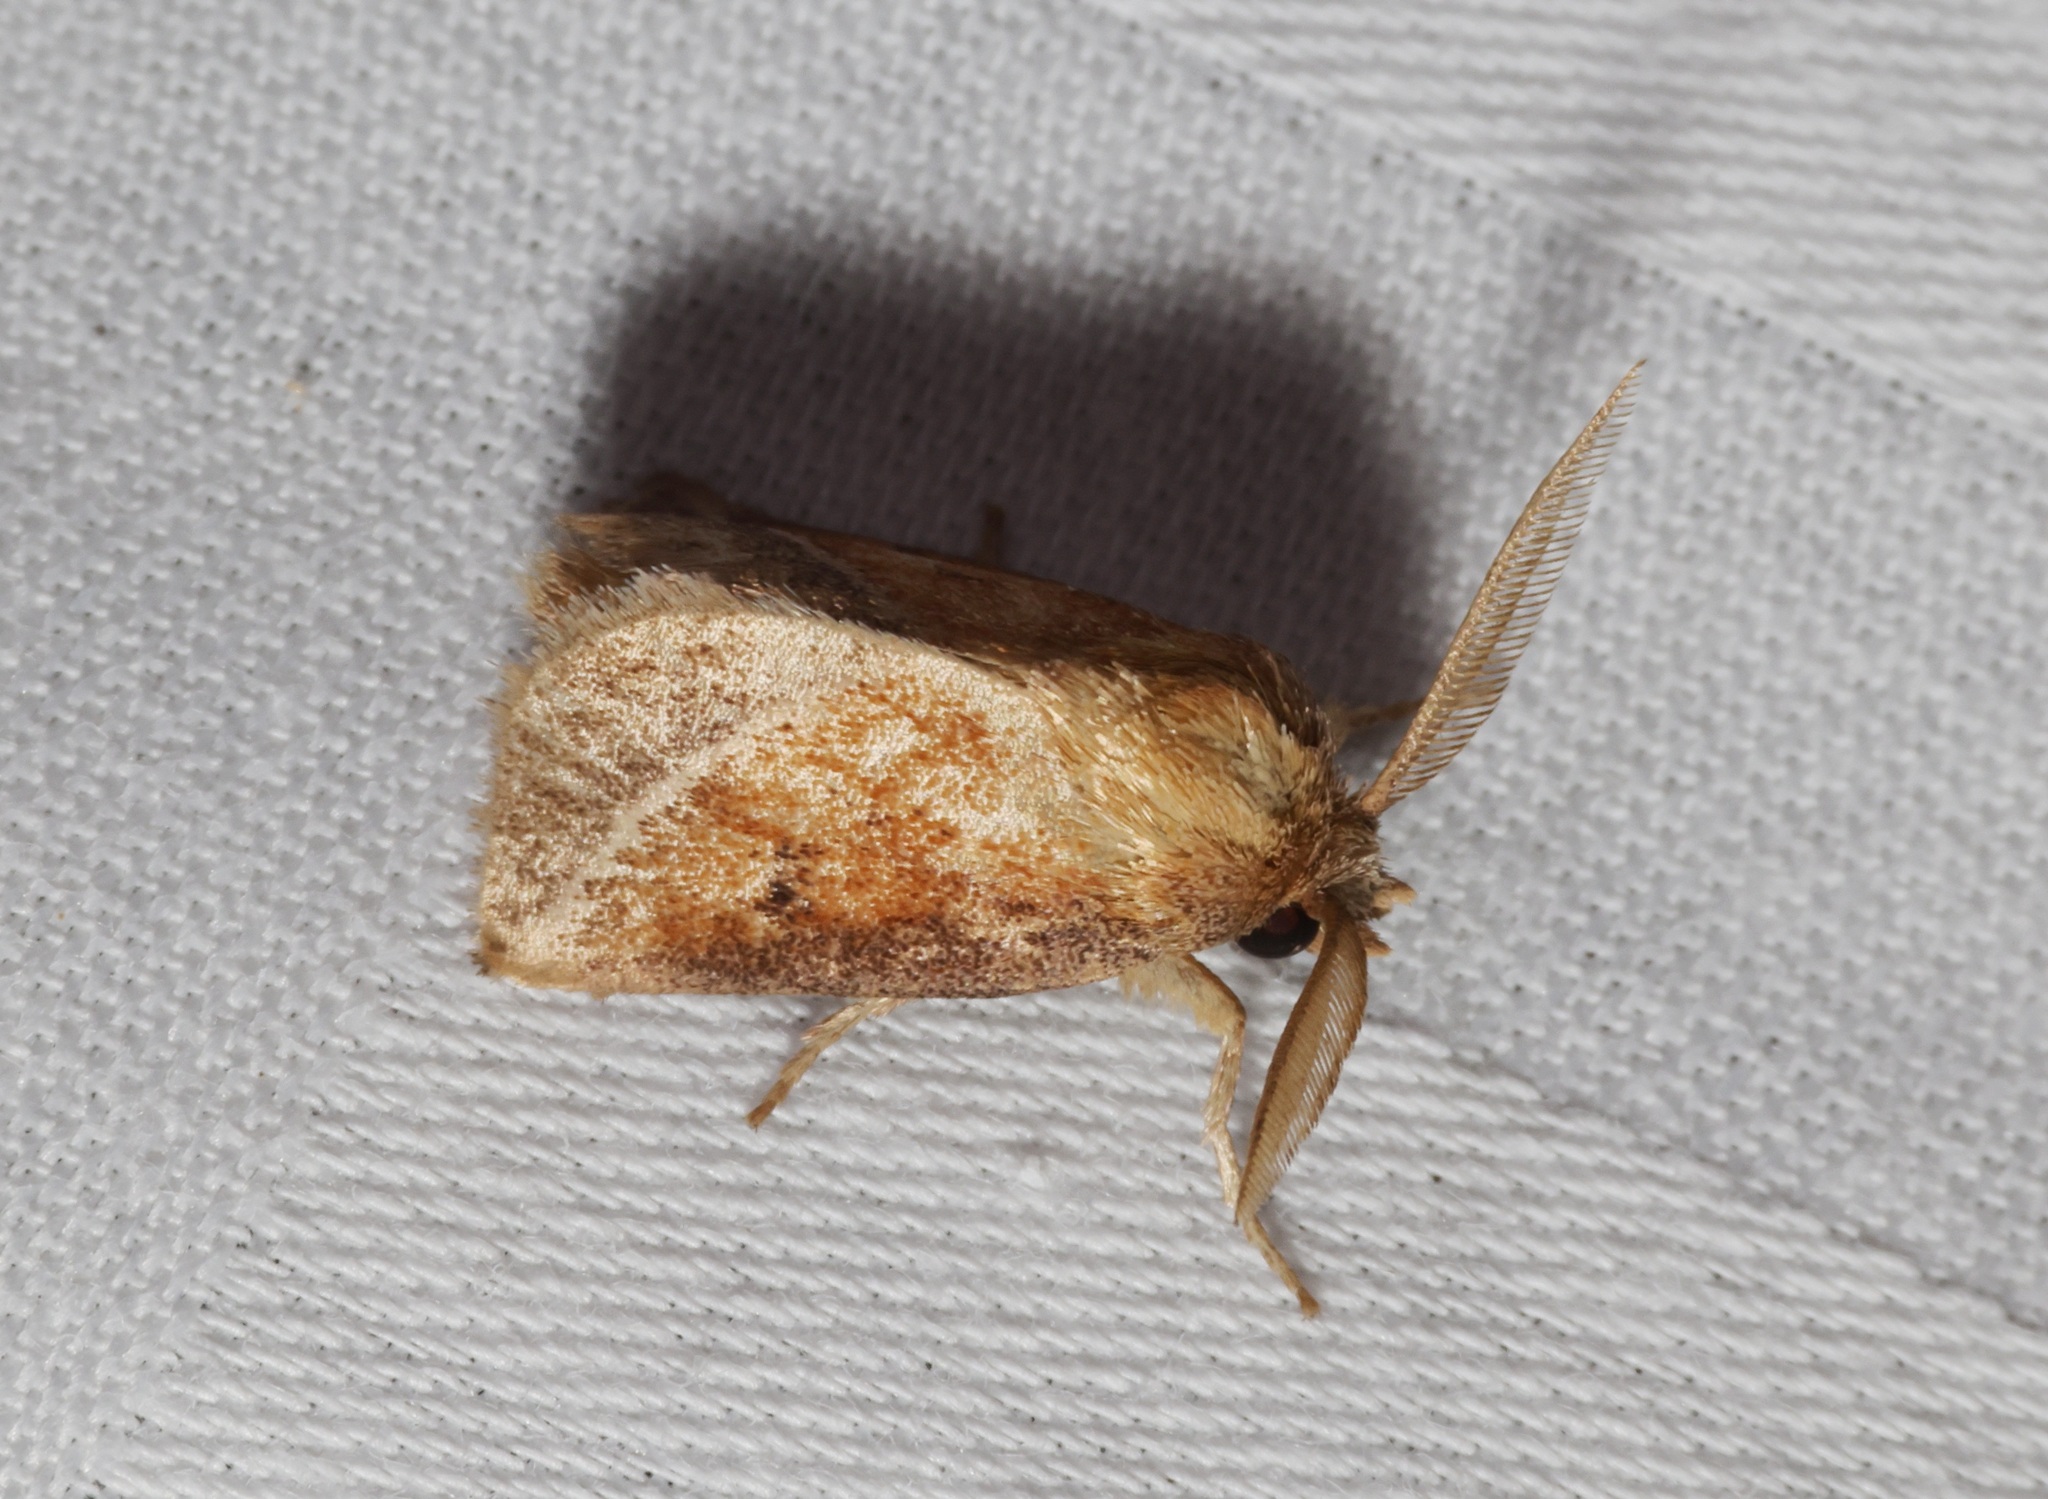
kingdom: Animalia
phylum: Arthropoda
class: Insecta
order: Lepidoptera
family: Limacodidae
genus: Oxyplax
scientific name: Oxyplax pallivitta
